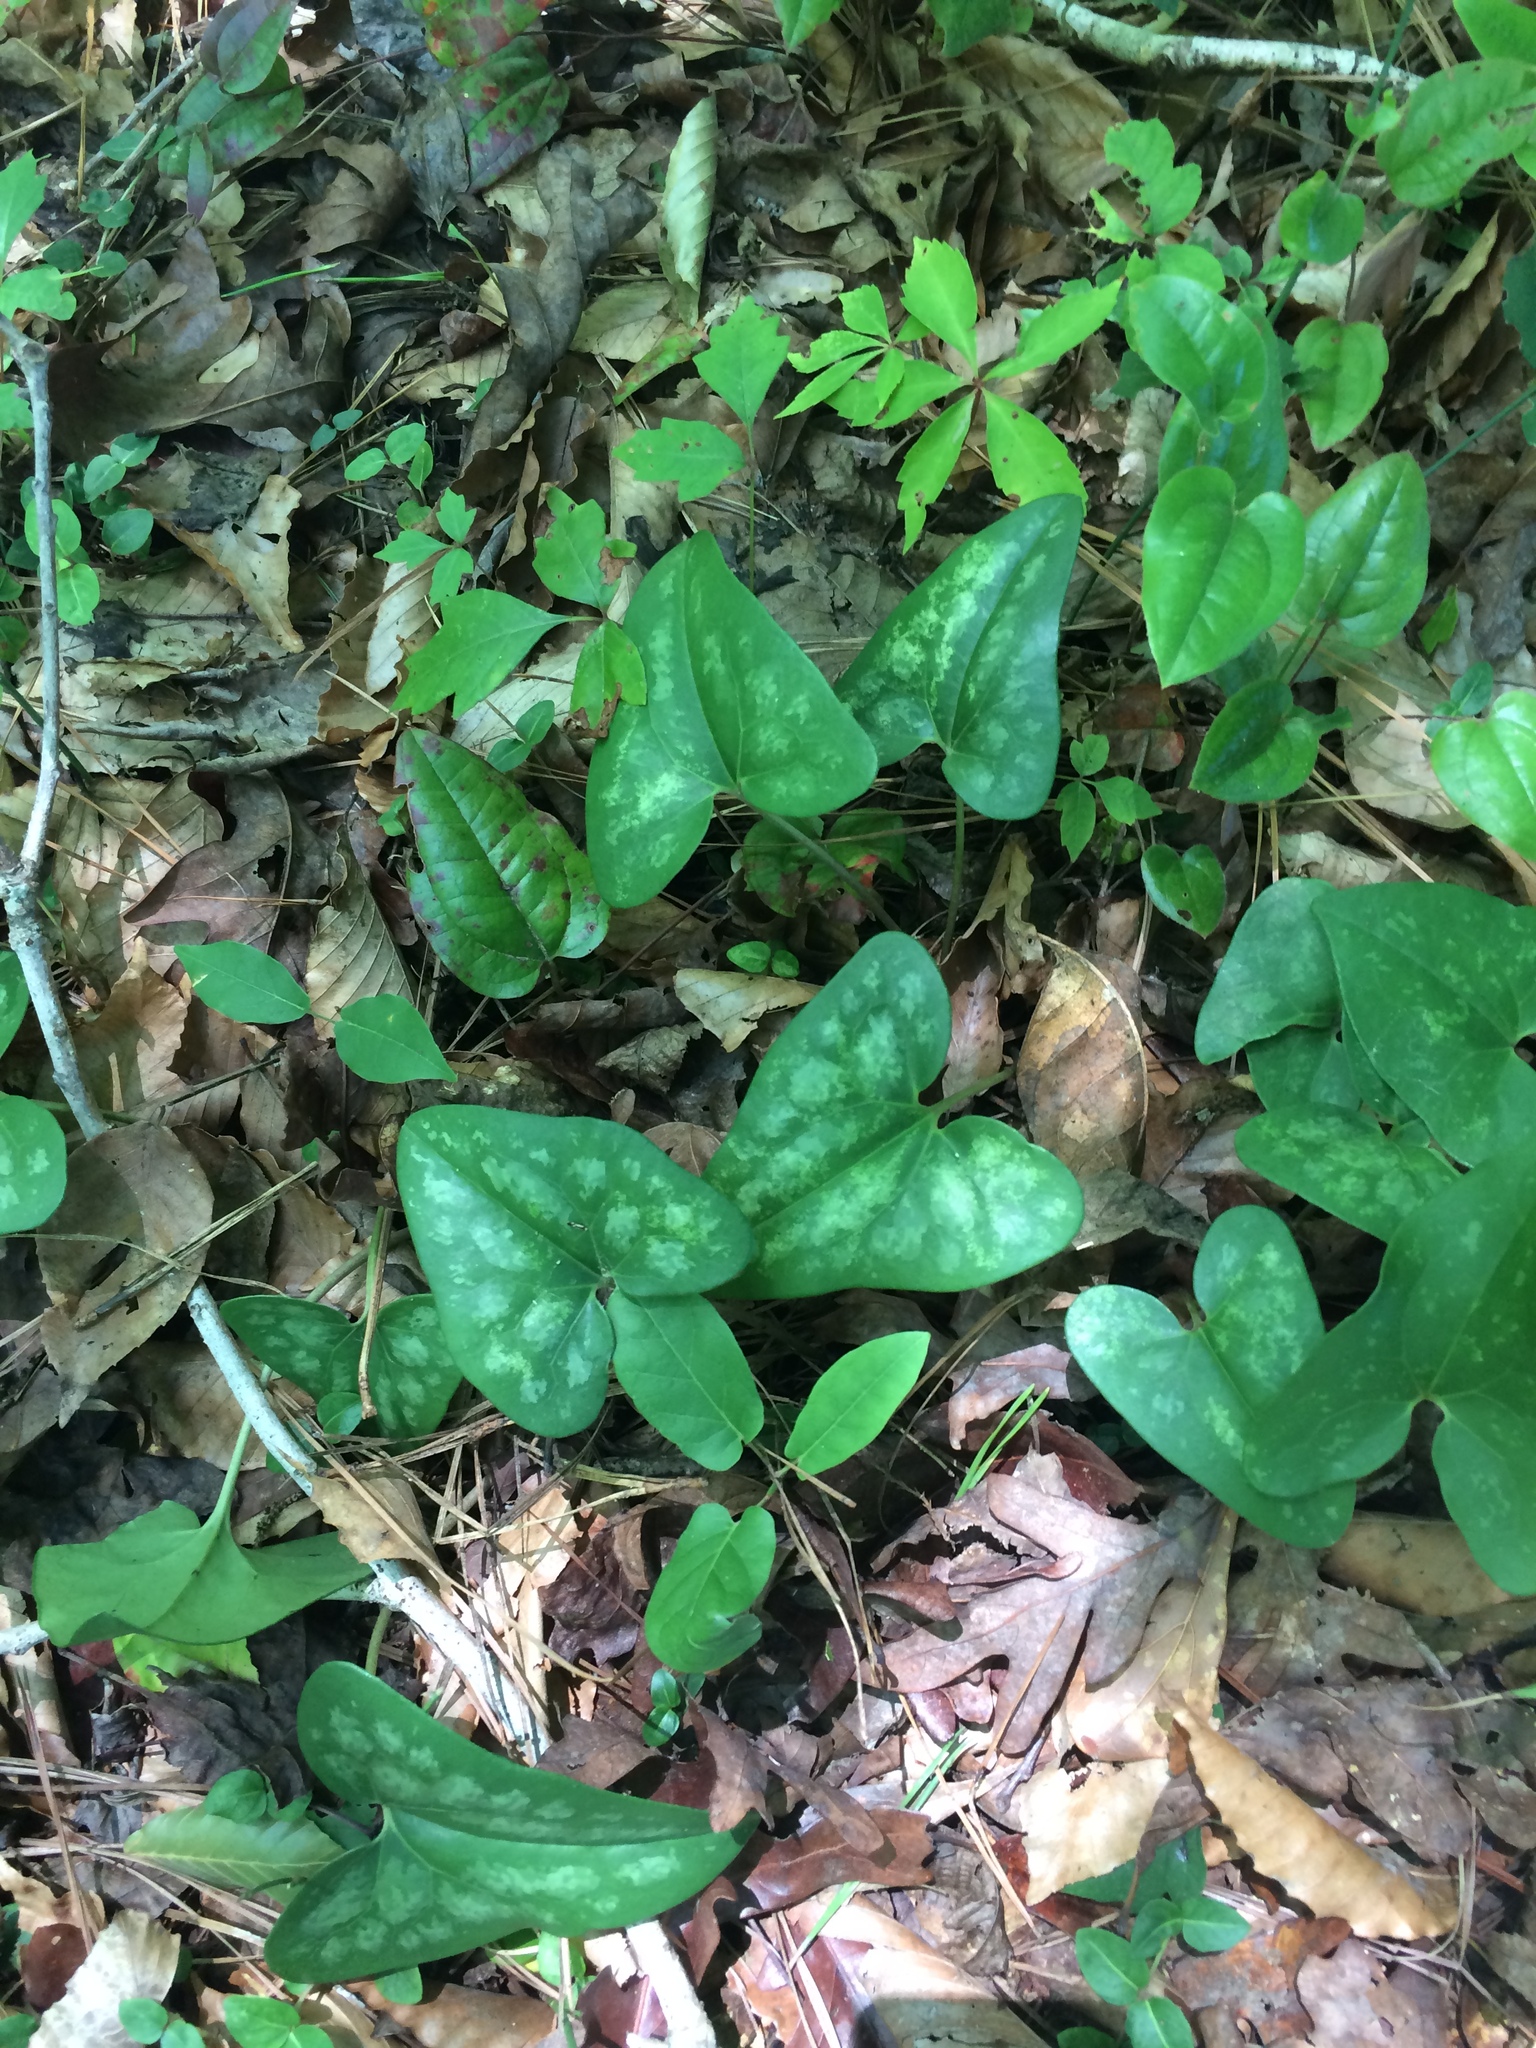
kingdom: Plantae
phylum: Tracheophyta
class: Magnoliopsida
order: Piperales
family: Aristolochiaceae
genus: Hexastylis
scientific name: Hexastylis arifolia
